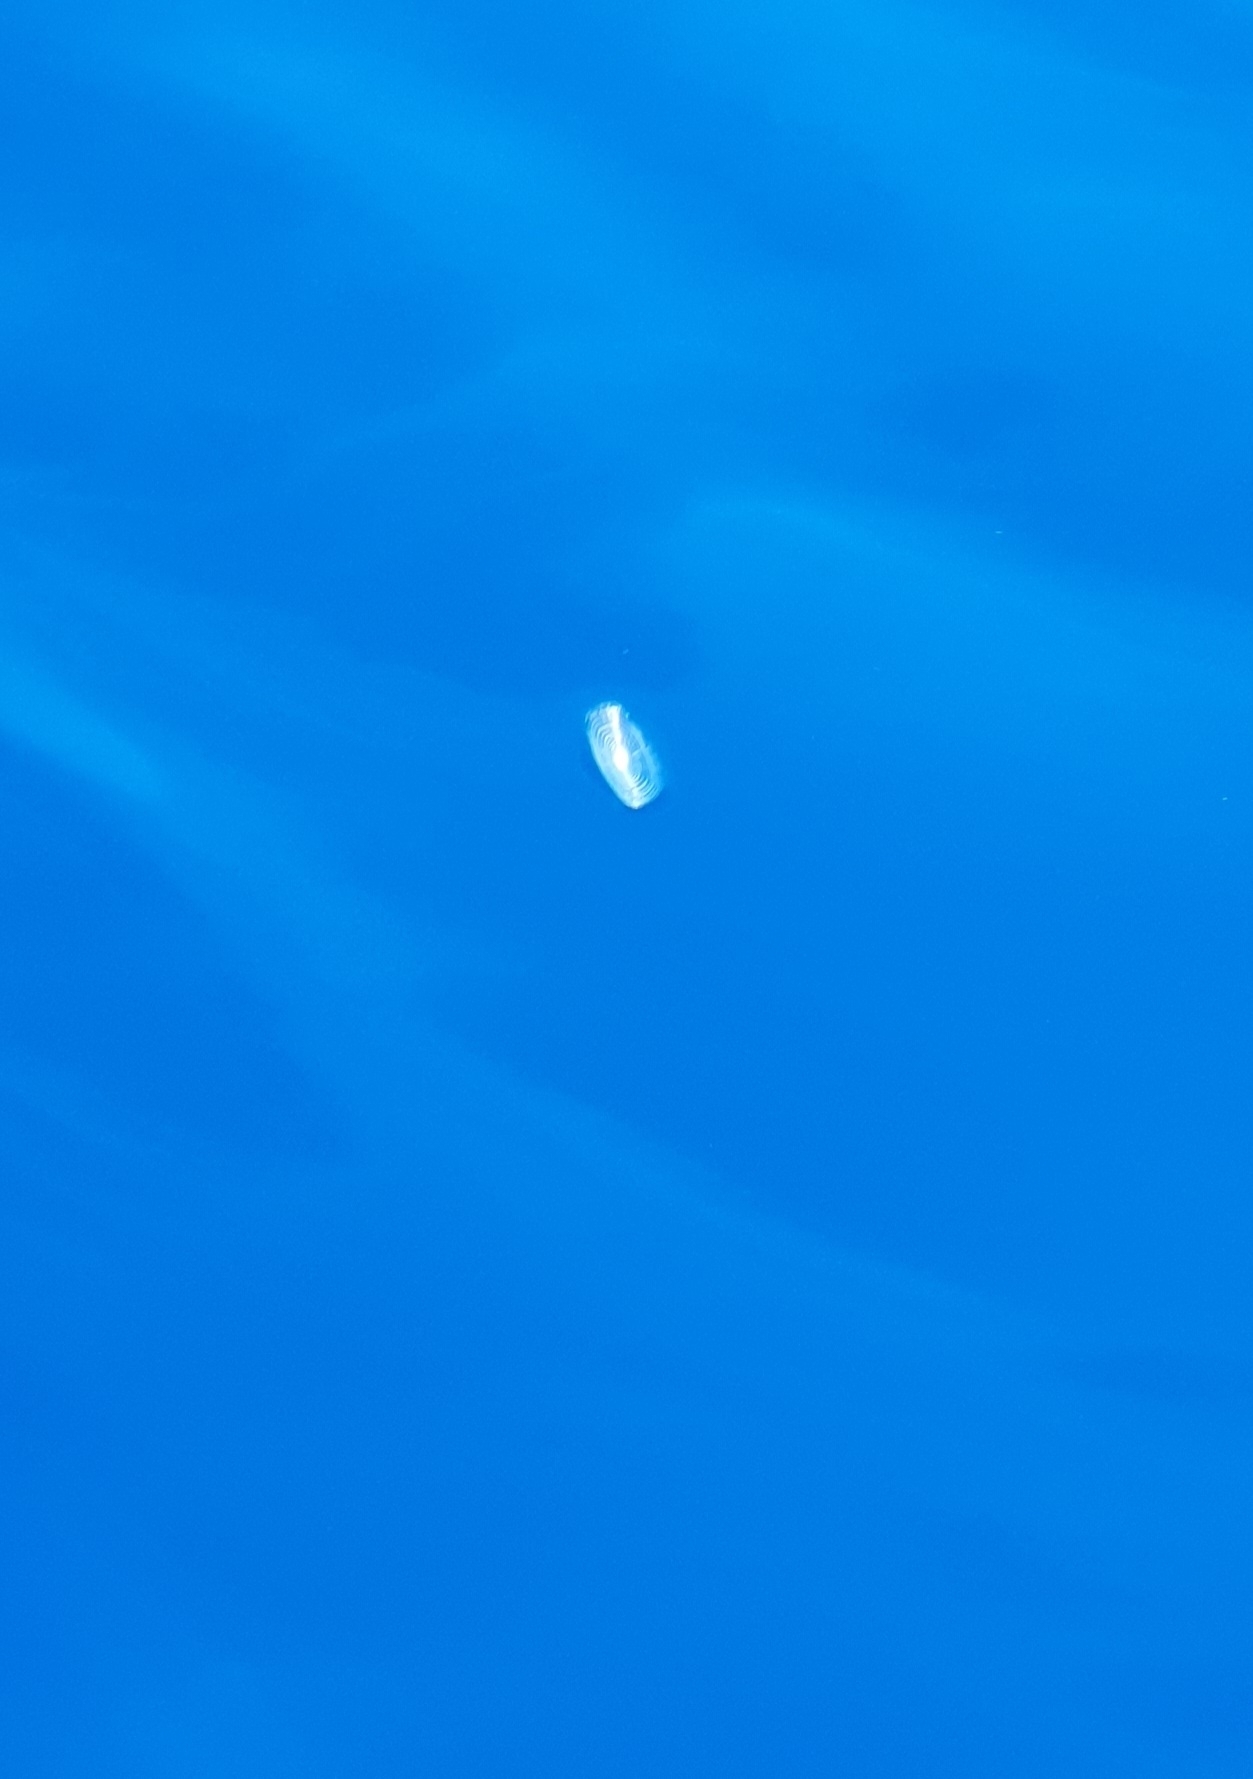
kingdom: Animalia
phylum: Cnidaria
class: Hydrozoa
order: Anthoathecata
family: Porpitidae
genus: Velella
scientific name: Velella velella
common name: By-the-wind-sailor
